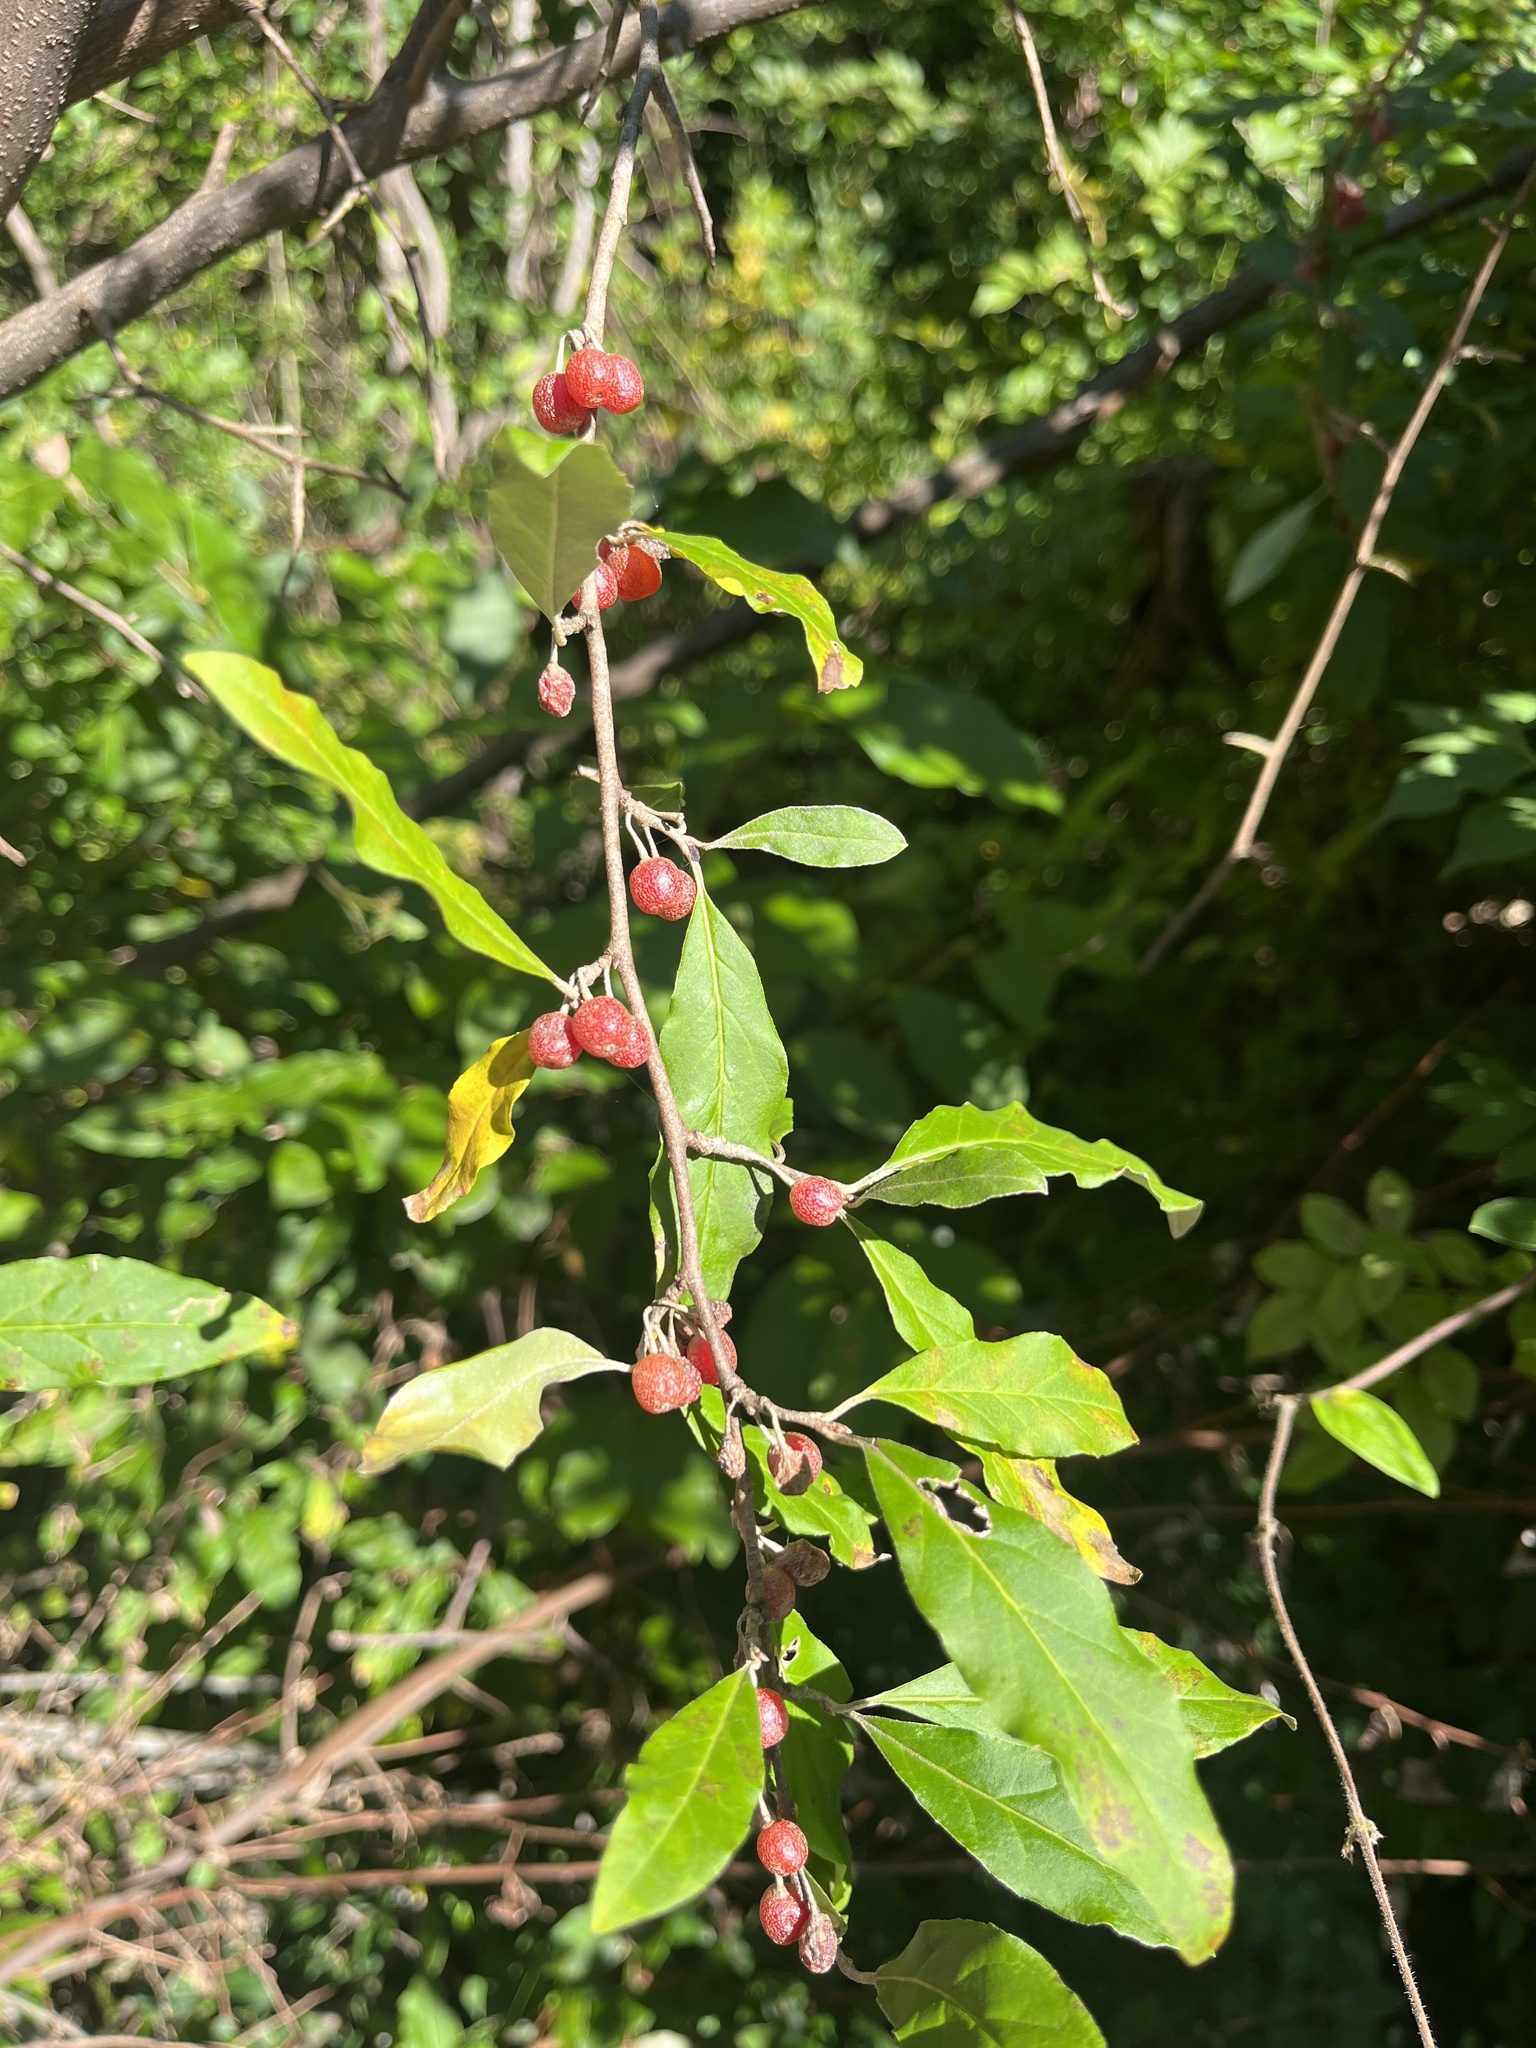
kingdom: Plantae
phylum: Tracheophyta
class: Magnoliopsida
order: Rosales
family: Elaeagnaceae
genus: Elaeagnus
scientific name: Elaeagnus umbellata
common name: Autumn olive
